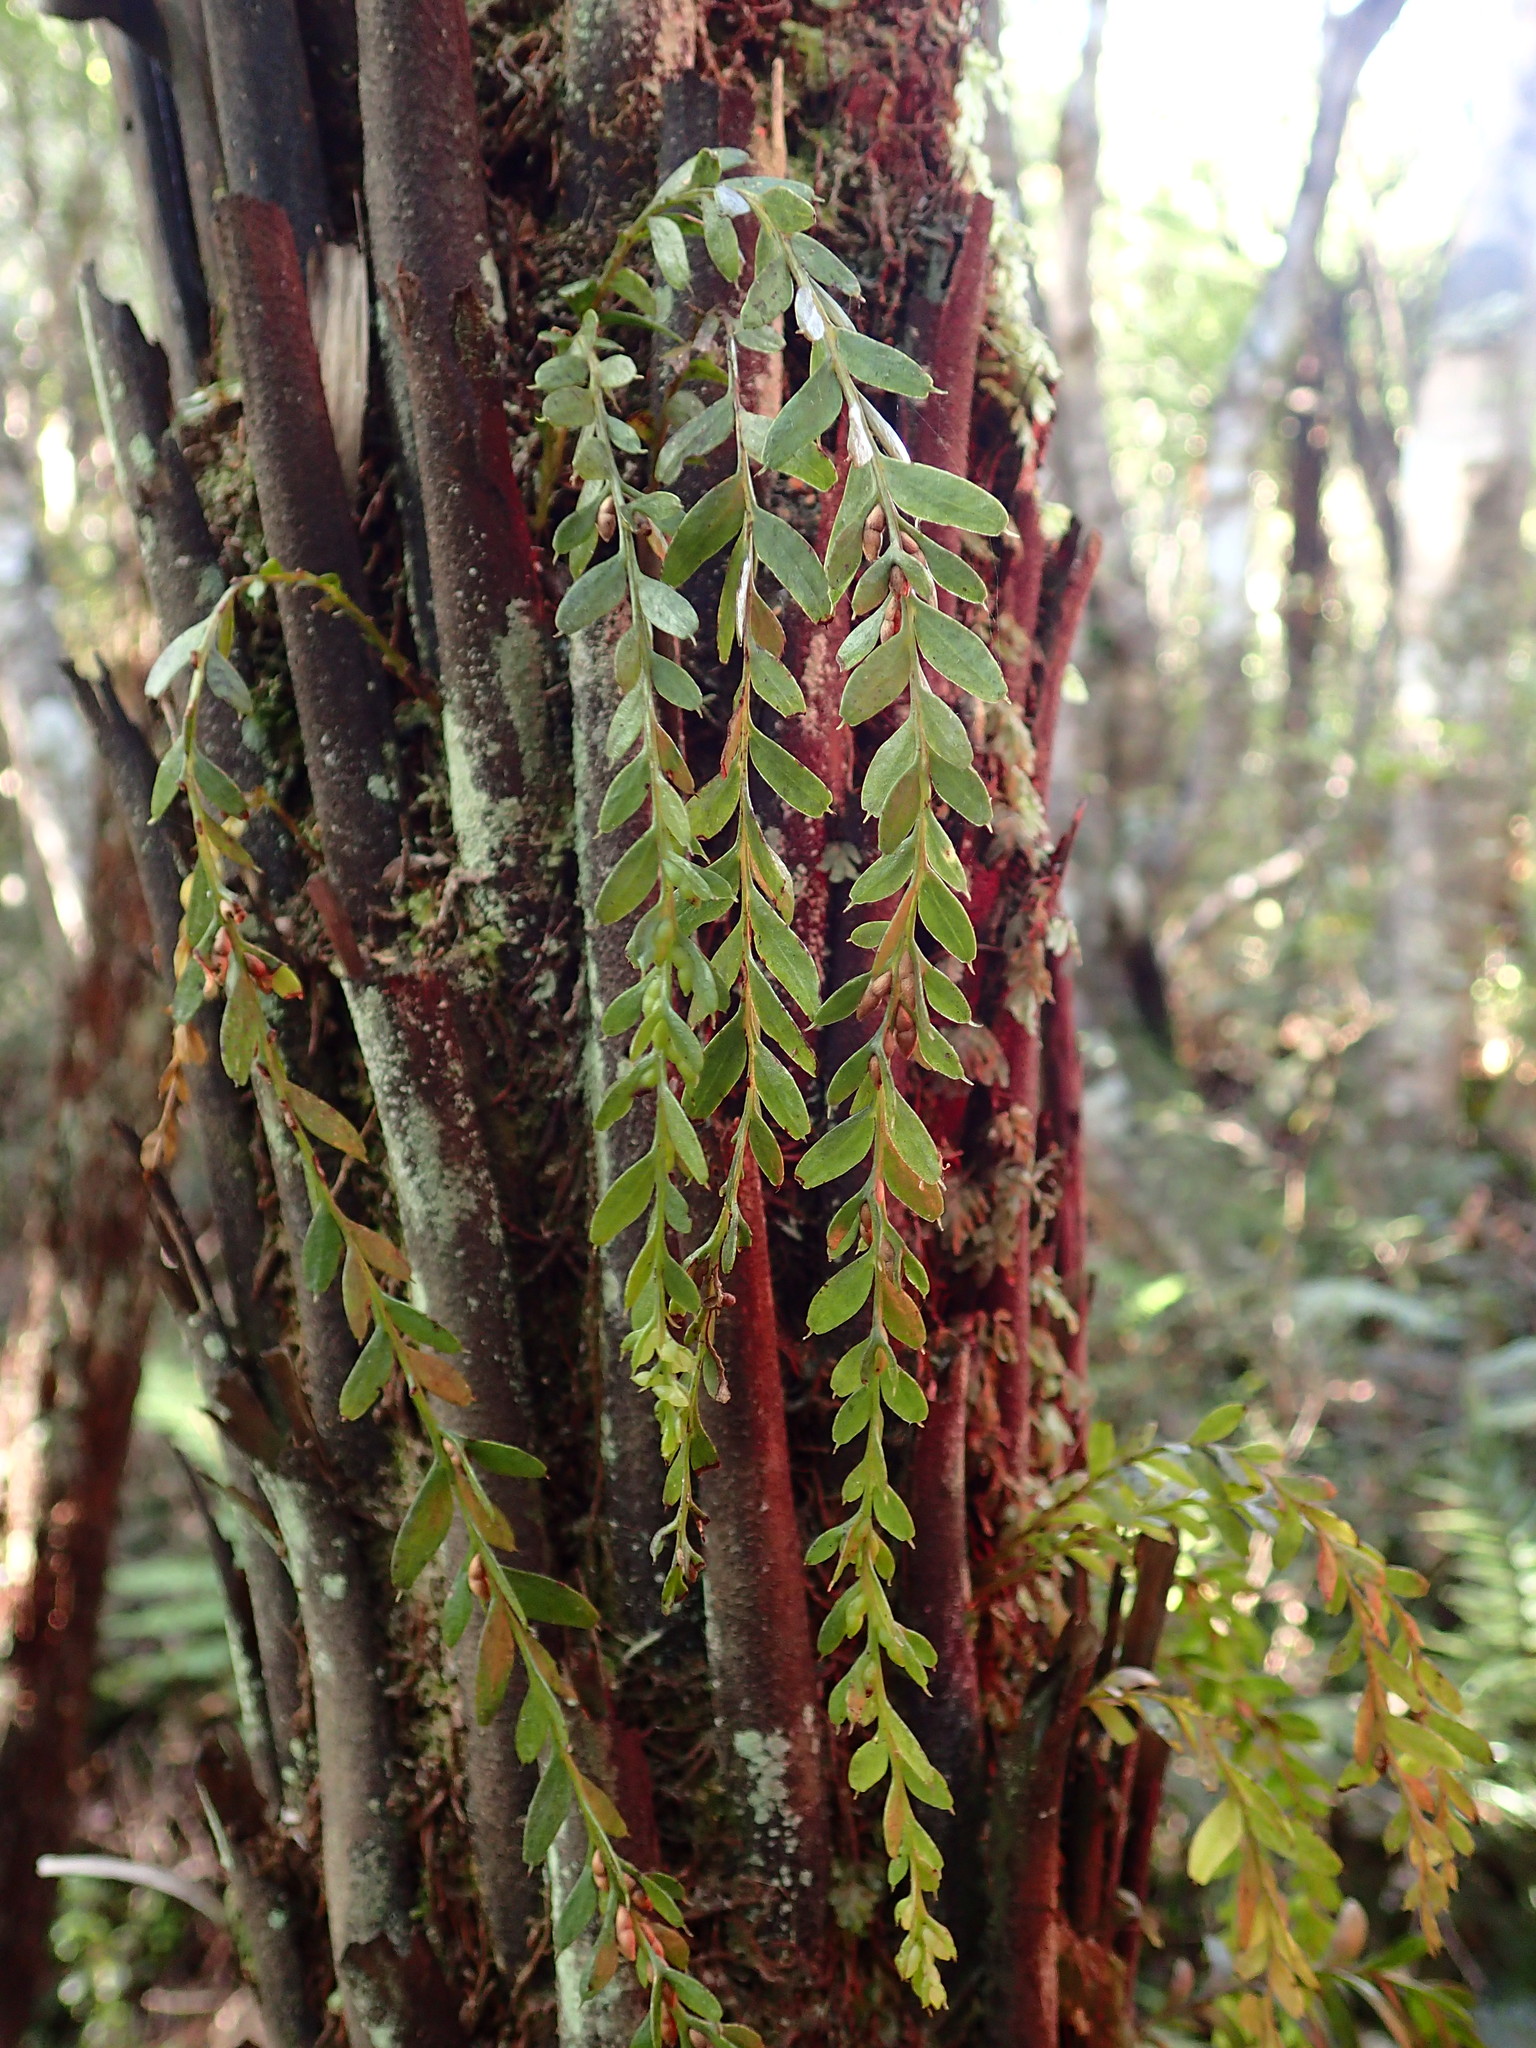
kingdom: Plantae
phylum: Tracheophyta
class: Polypodiopsida
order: Psilotales
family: Psilotaceae
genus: Tmesipteris
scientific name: Tmesipteris tannensis
